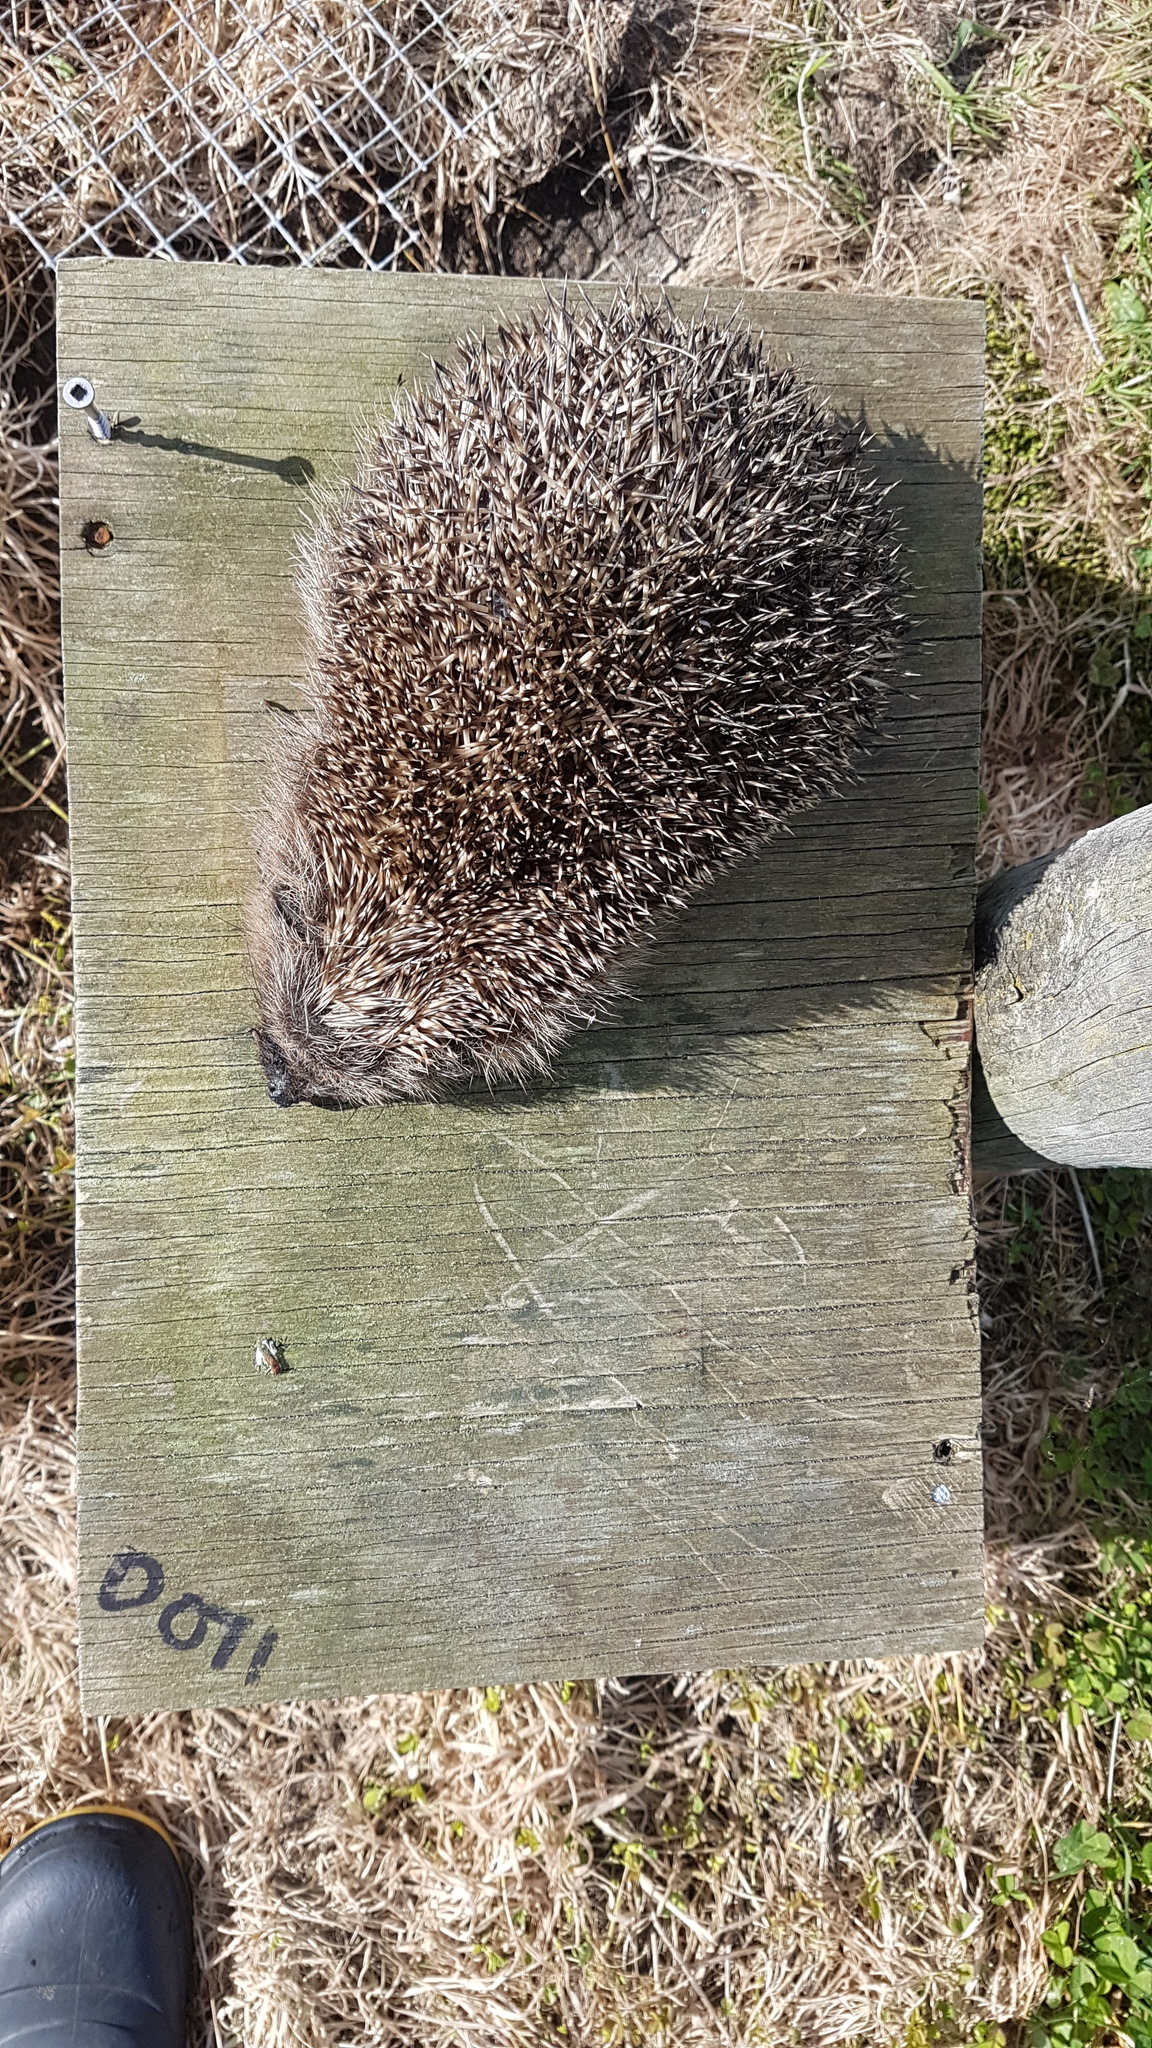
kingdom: Animalia
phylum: Chordata
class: Mammalia
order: Erinaceomorpha
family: Erinaceidae
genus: Erinaceus
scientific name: Erinaceus europaeus
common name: West european hedgehog
